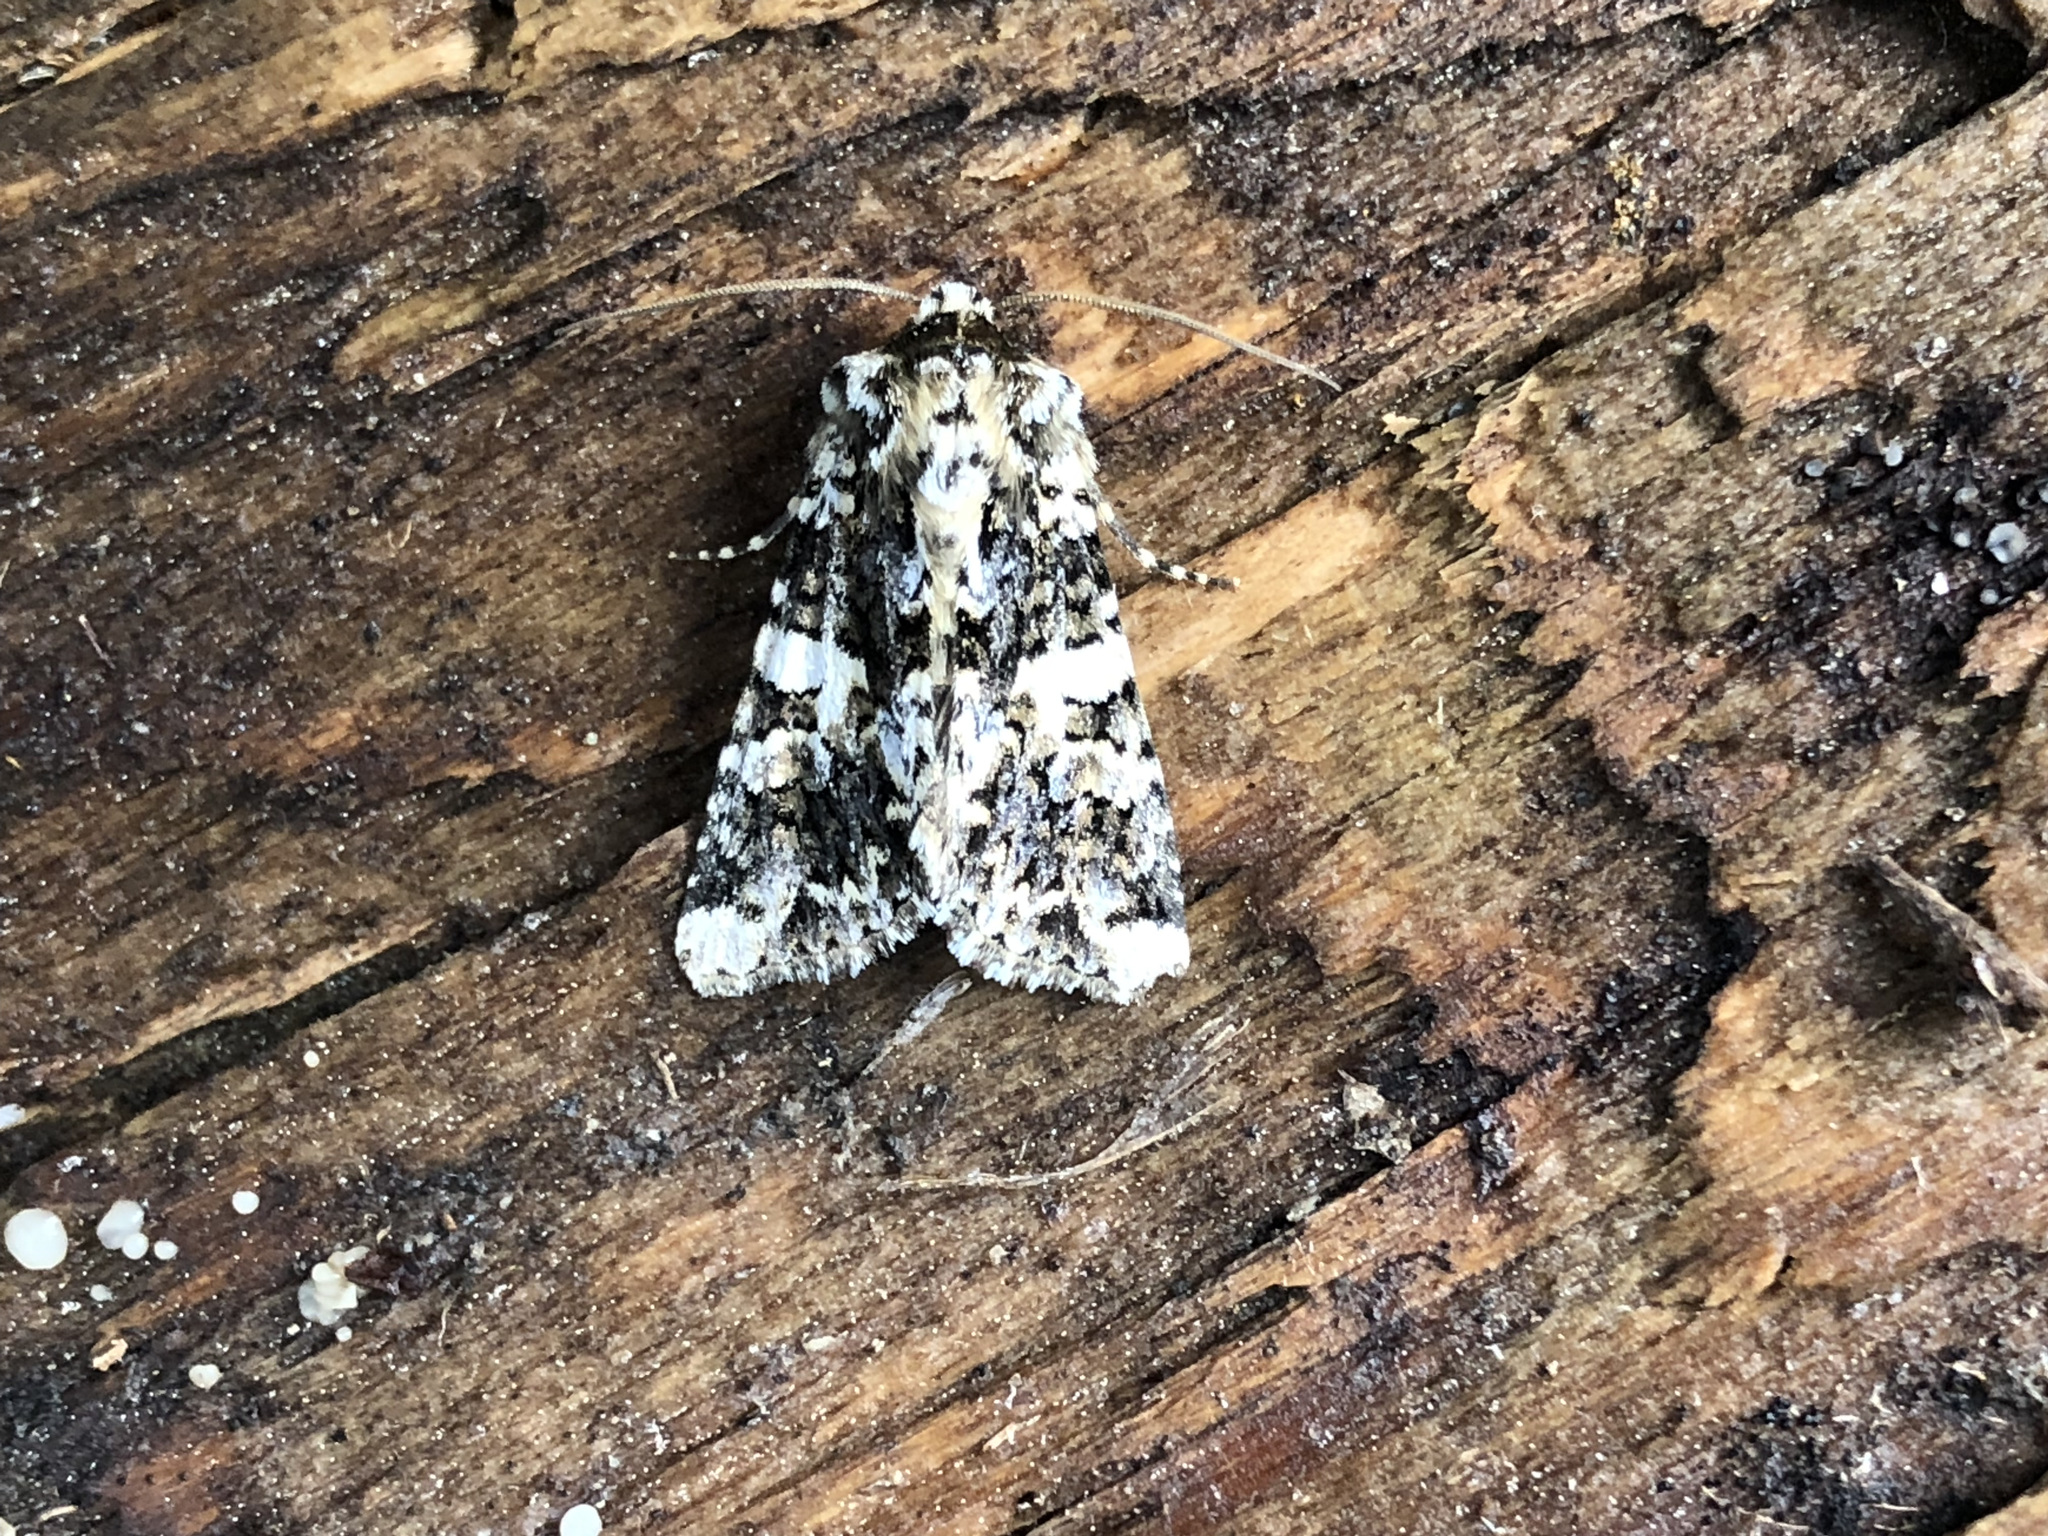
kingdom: Animalia
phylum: Arthropoda
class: Insecta
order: Lepidoptera
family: Noctuidae
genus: Hadena
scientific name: Hadena confusa
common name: Marbled coronet
